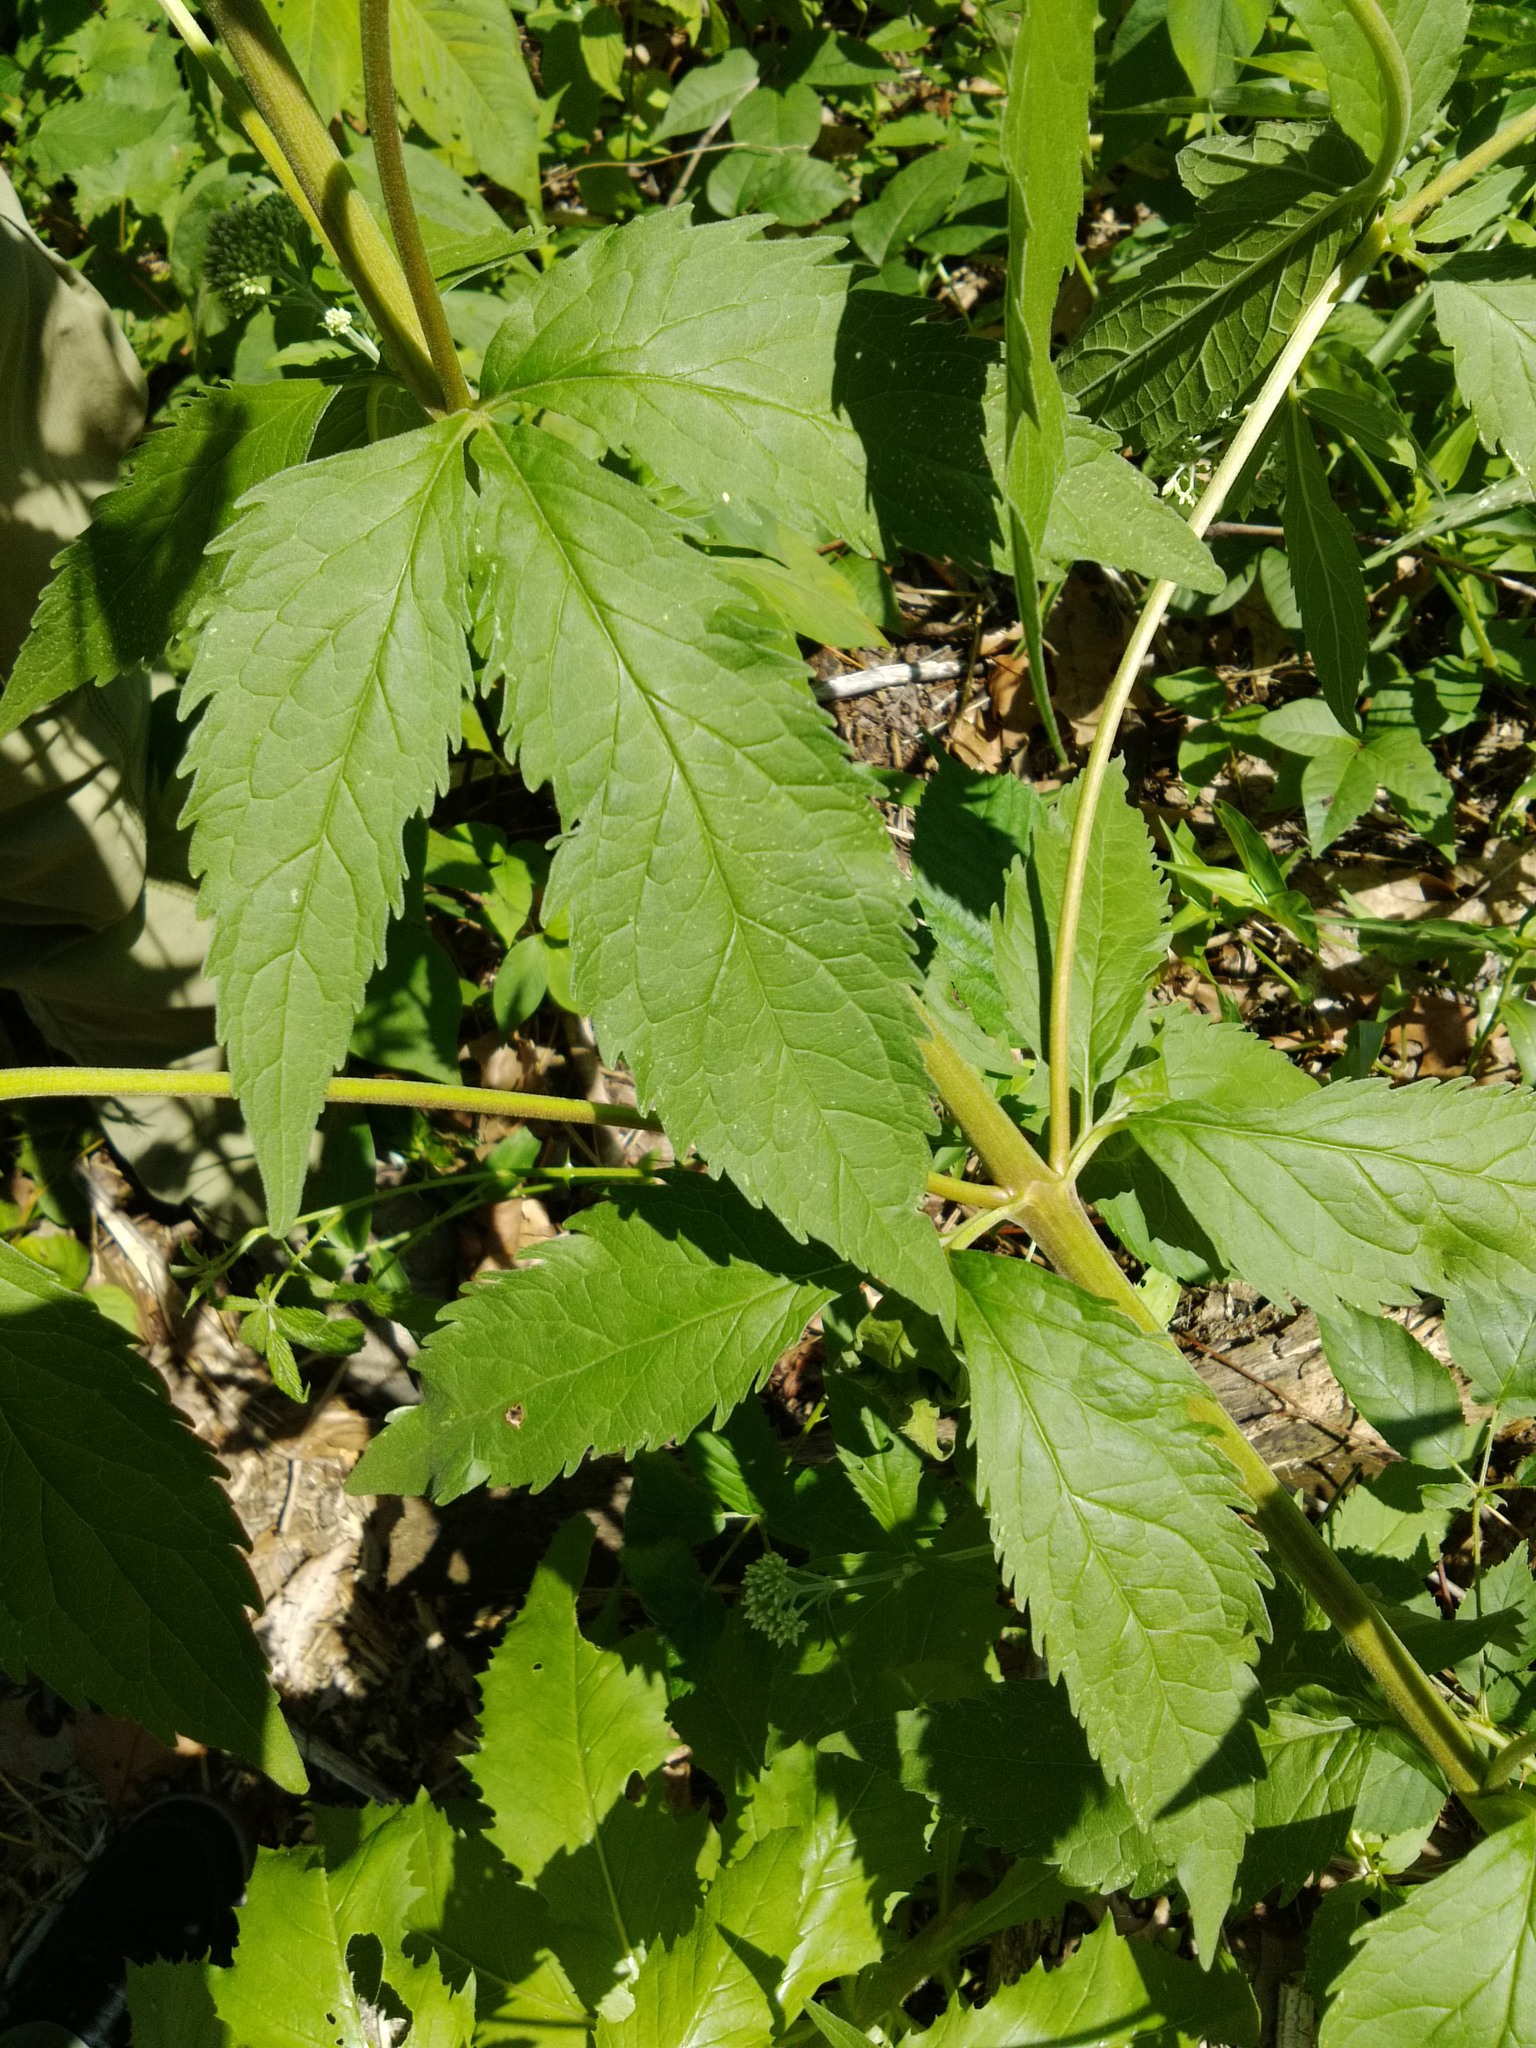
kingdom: Plantae
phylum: Tracheophyta
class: Magnoliopsida
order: Asterales
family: Asteraceae
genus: Eupatorium
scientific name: Eupatorium cannabinum
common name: Hemp-agrimony
